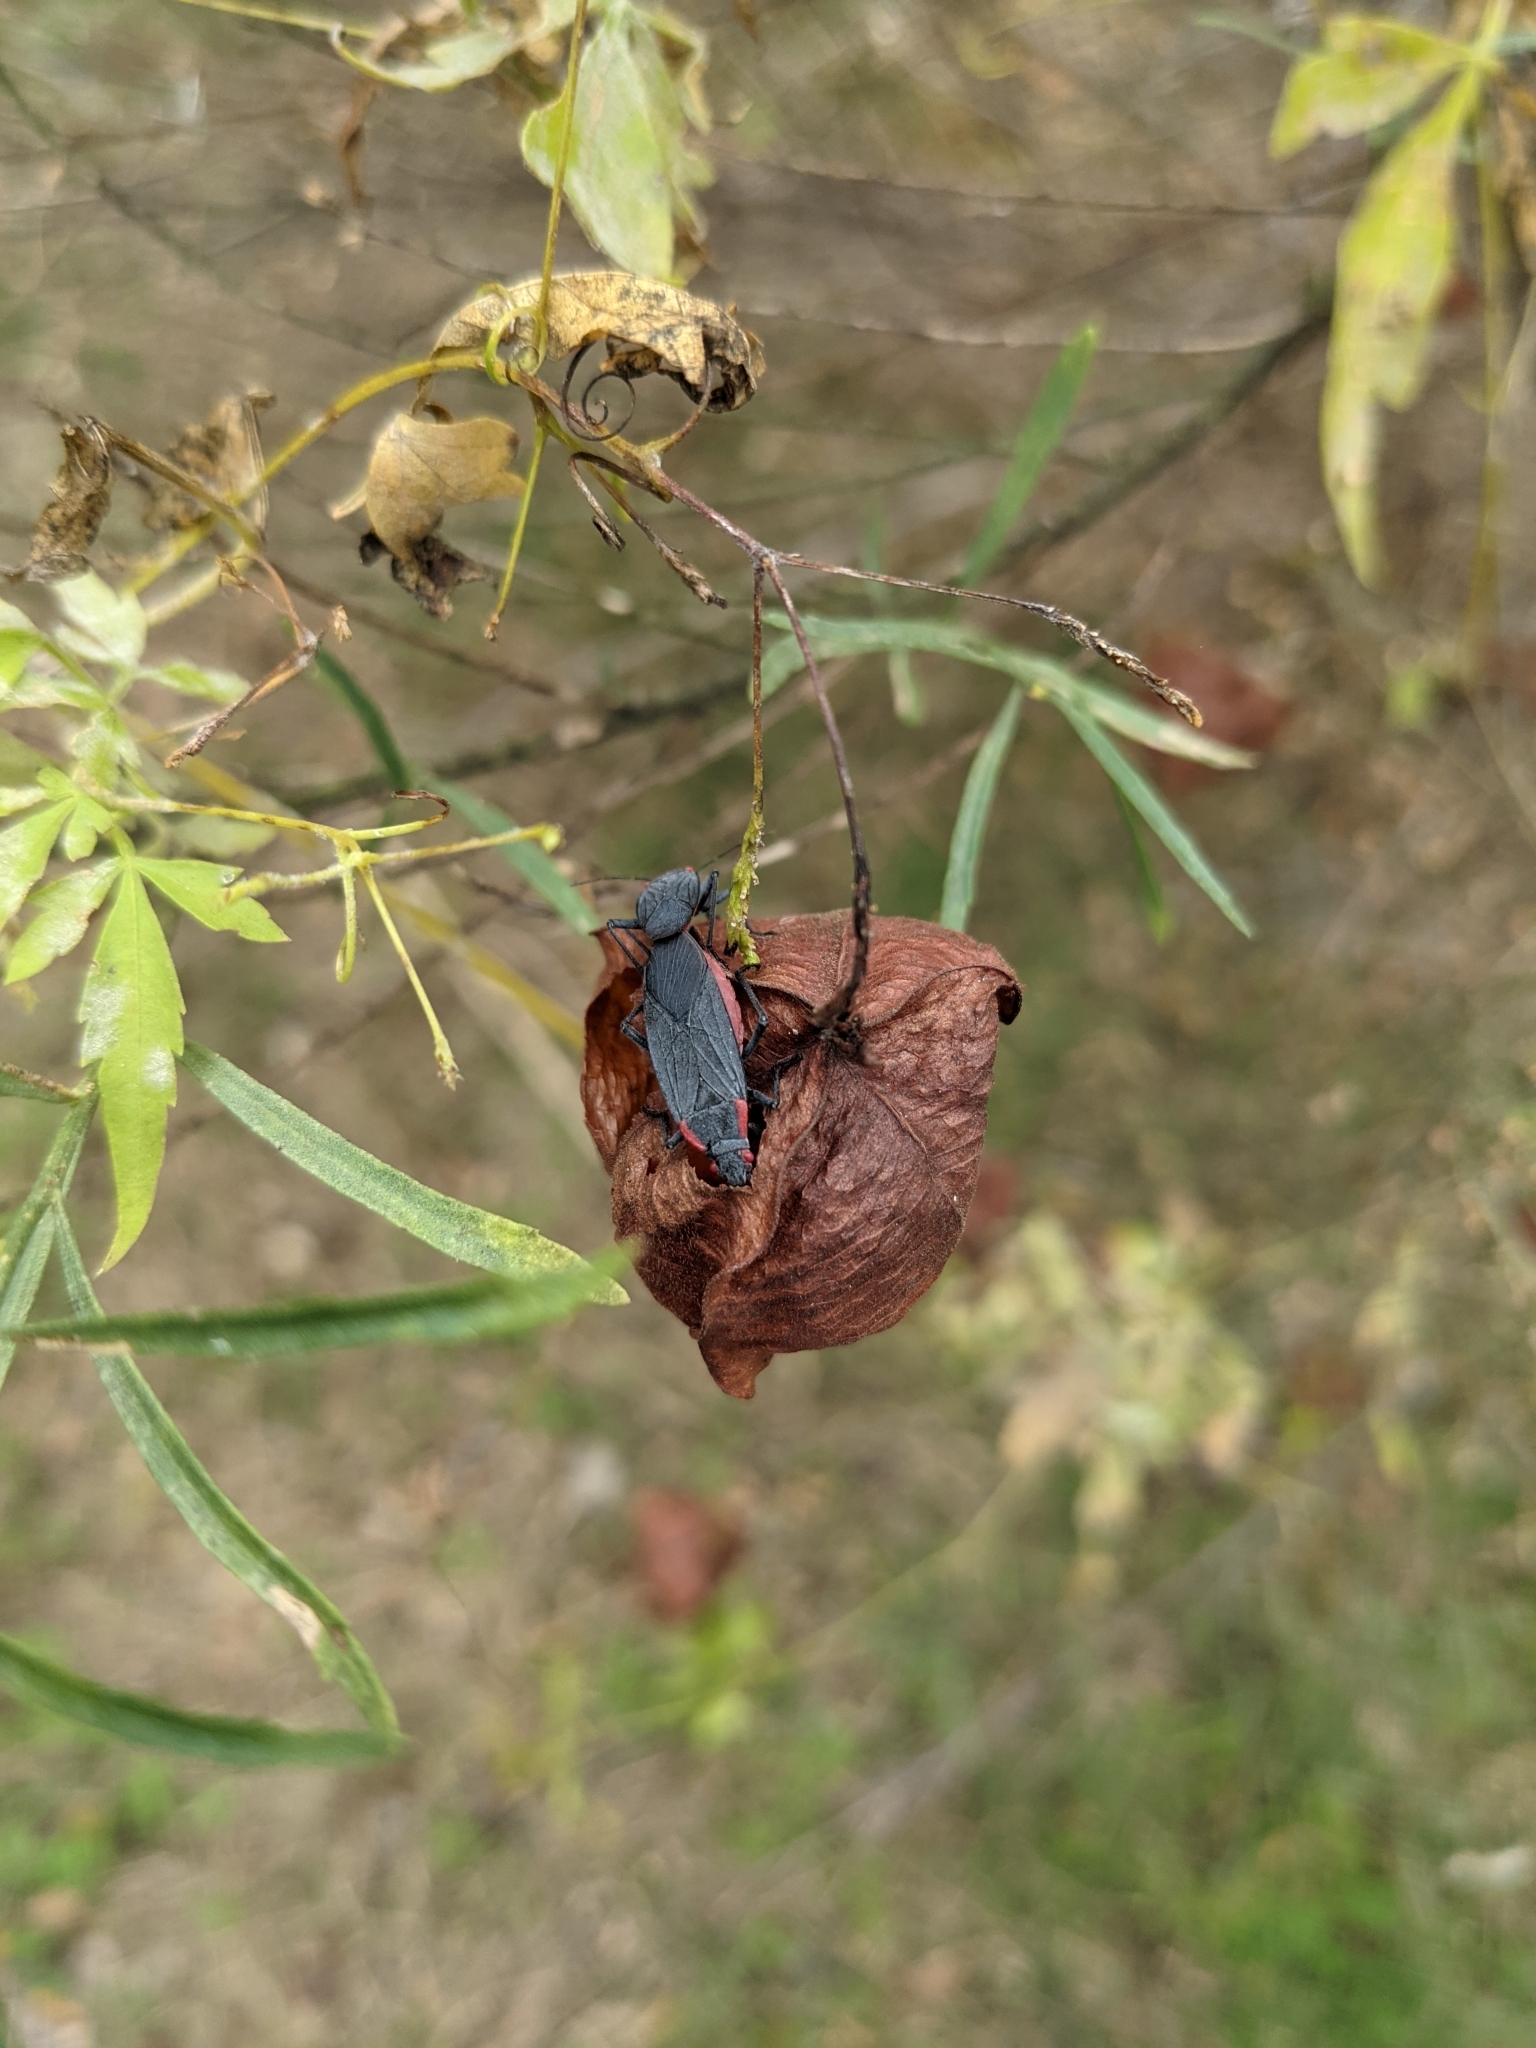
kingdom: Animalia
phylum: Arthropoda
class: Insecta
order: Hemiptera
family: Rhopalidae
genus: Jadera
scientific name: Jadera haematoloma
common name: Red-shouldered bug
